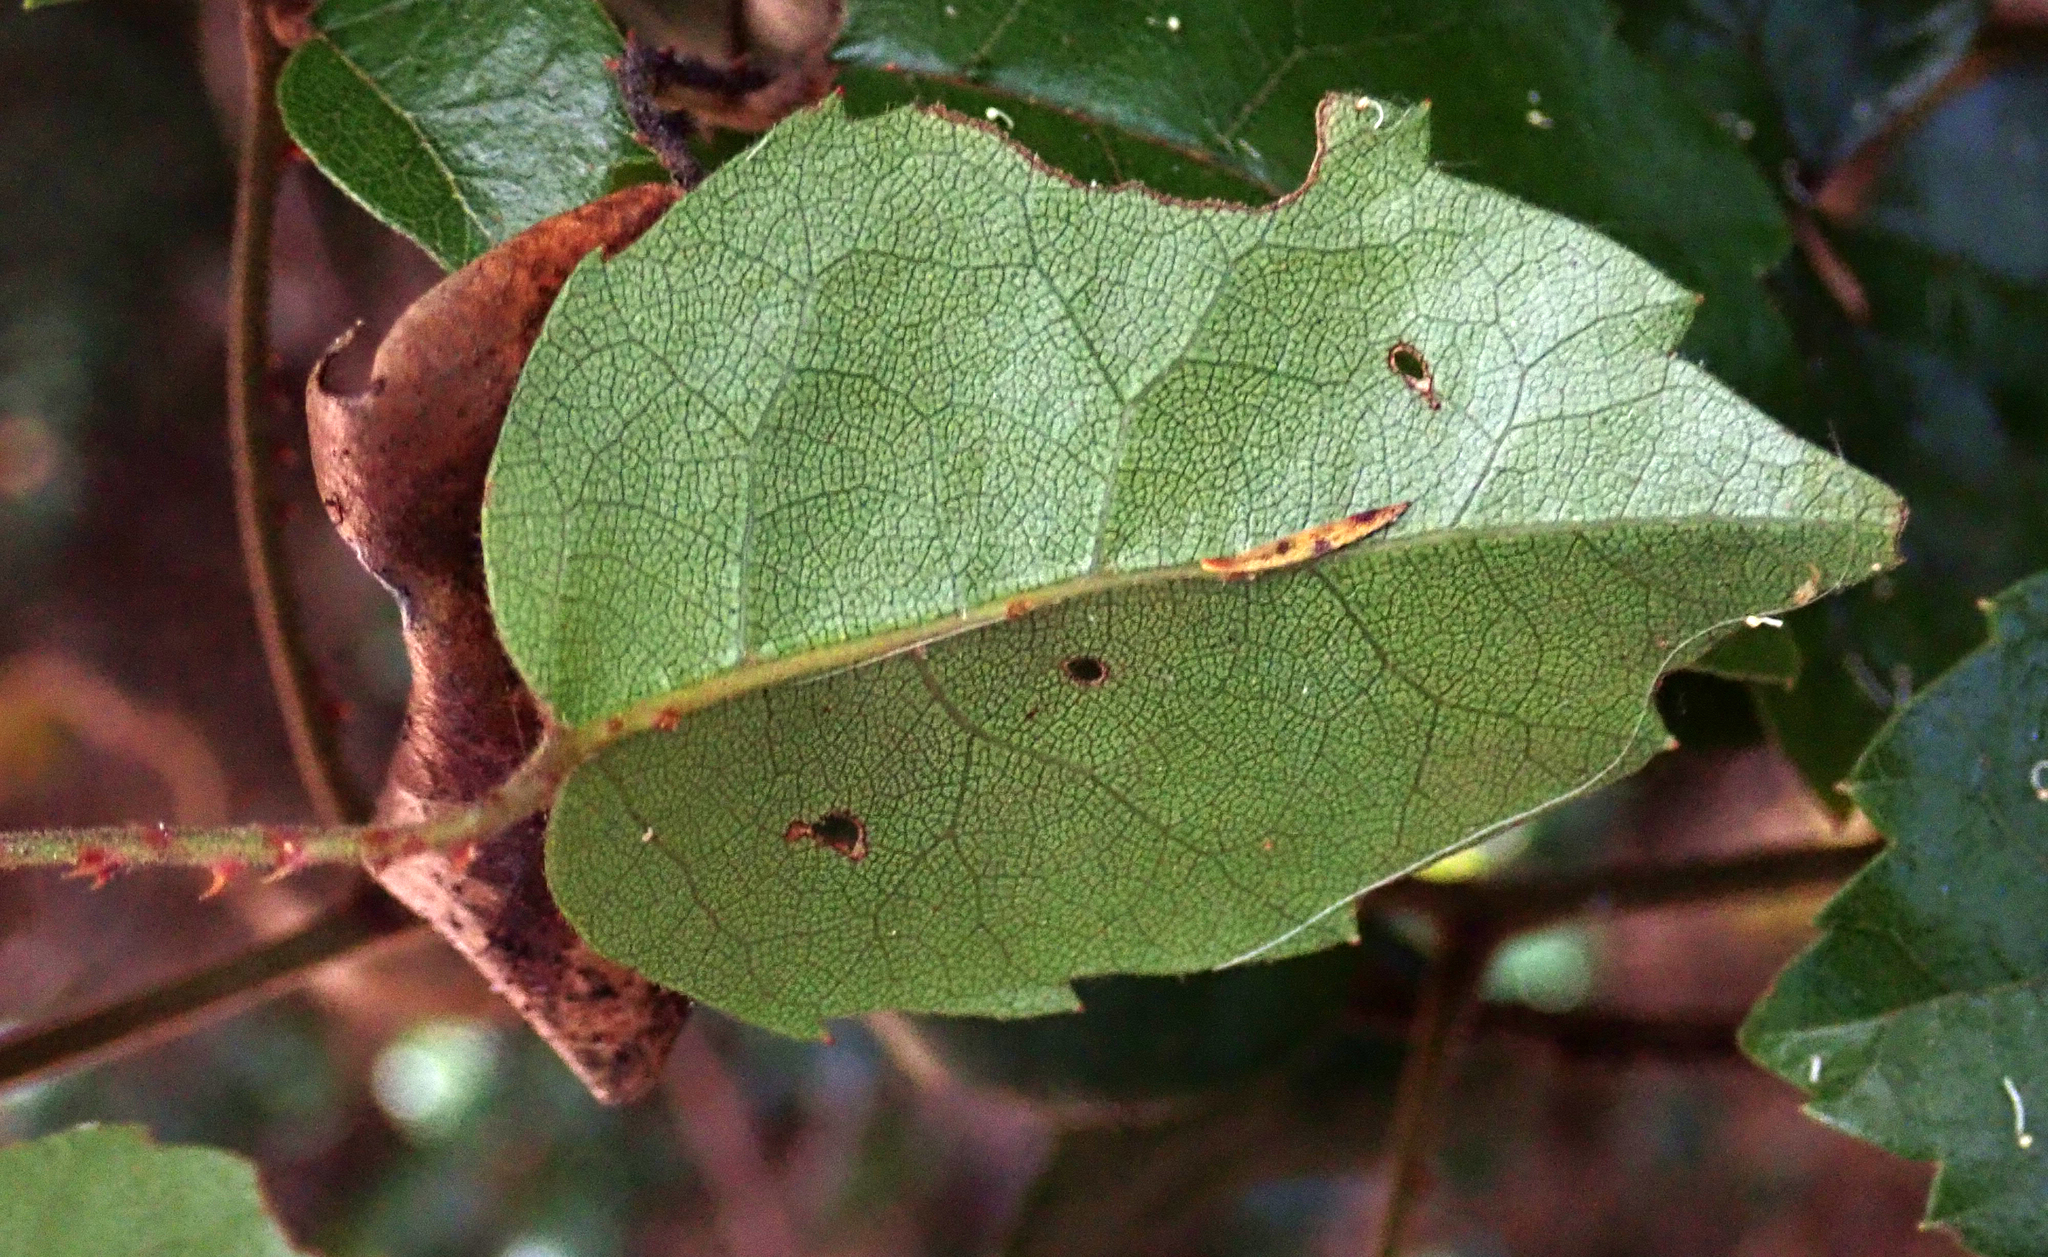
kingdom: Plantae
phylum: Tracheophyta
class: Magnoliopsida
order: Rosales
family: Rosaceae
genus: Rubus
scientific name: Rubus australis
